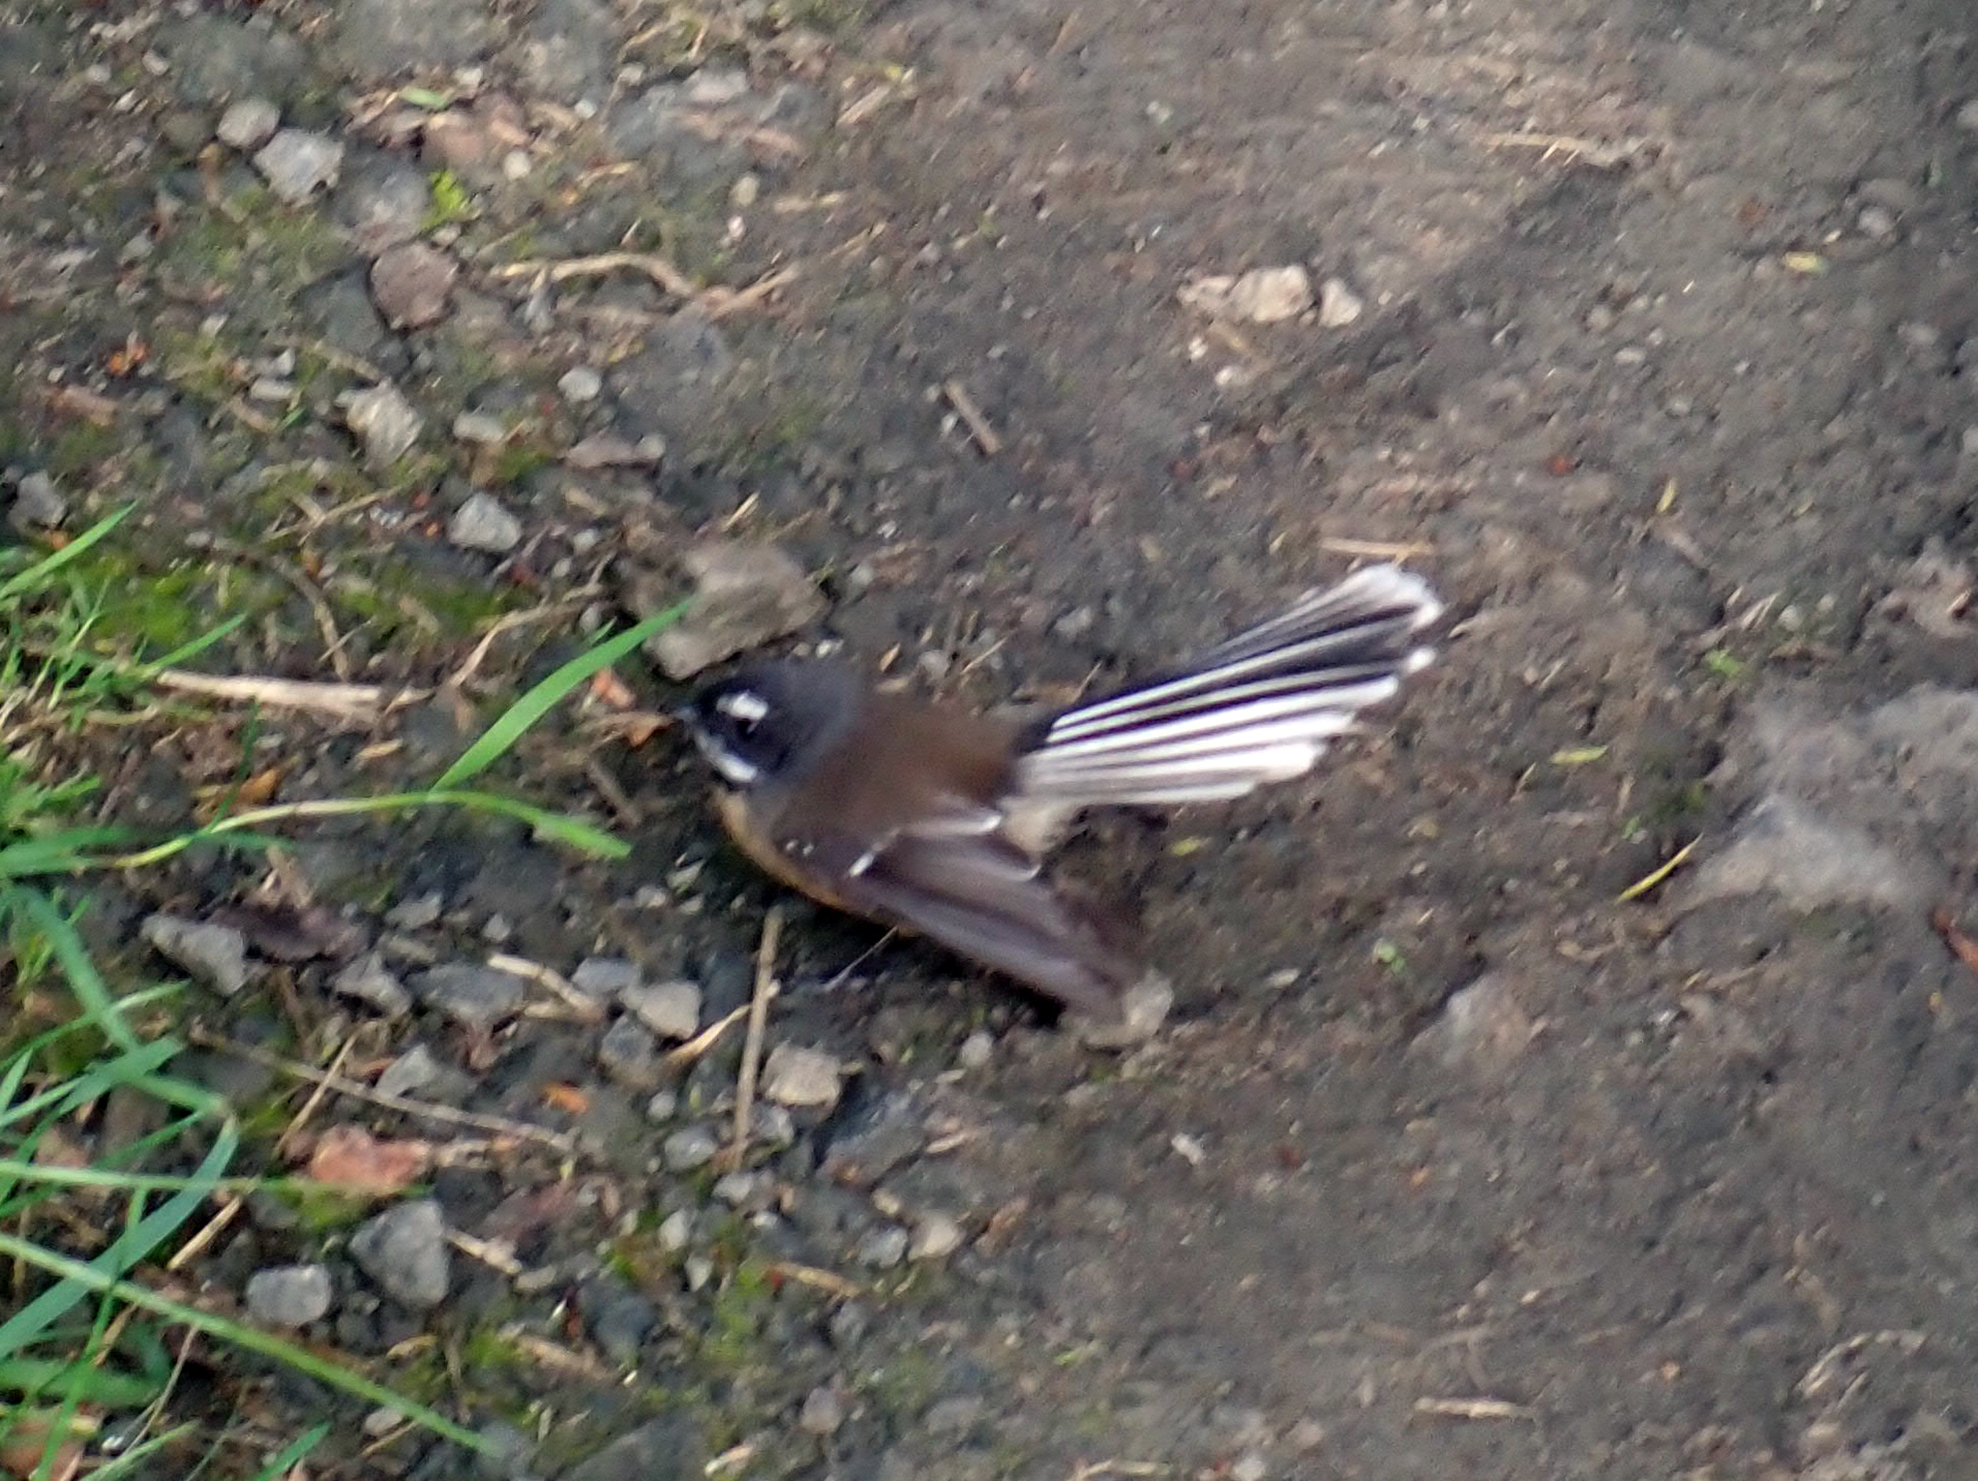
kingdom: Animalia
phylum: Chordata
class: Aves
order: Passeriformes
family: Rhipiduridae
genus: Rhipidura
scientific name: Rhipidura fuliginosa
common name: New zealand fantail
